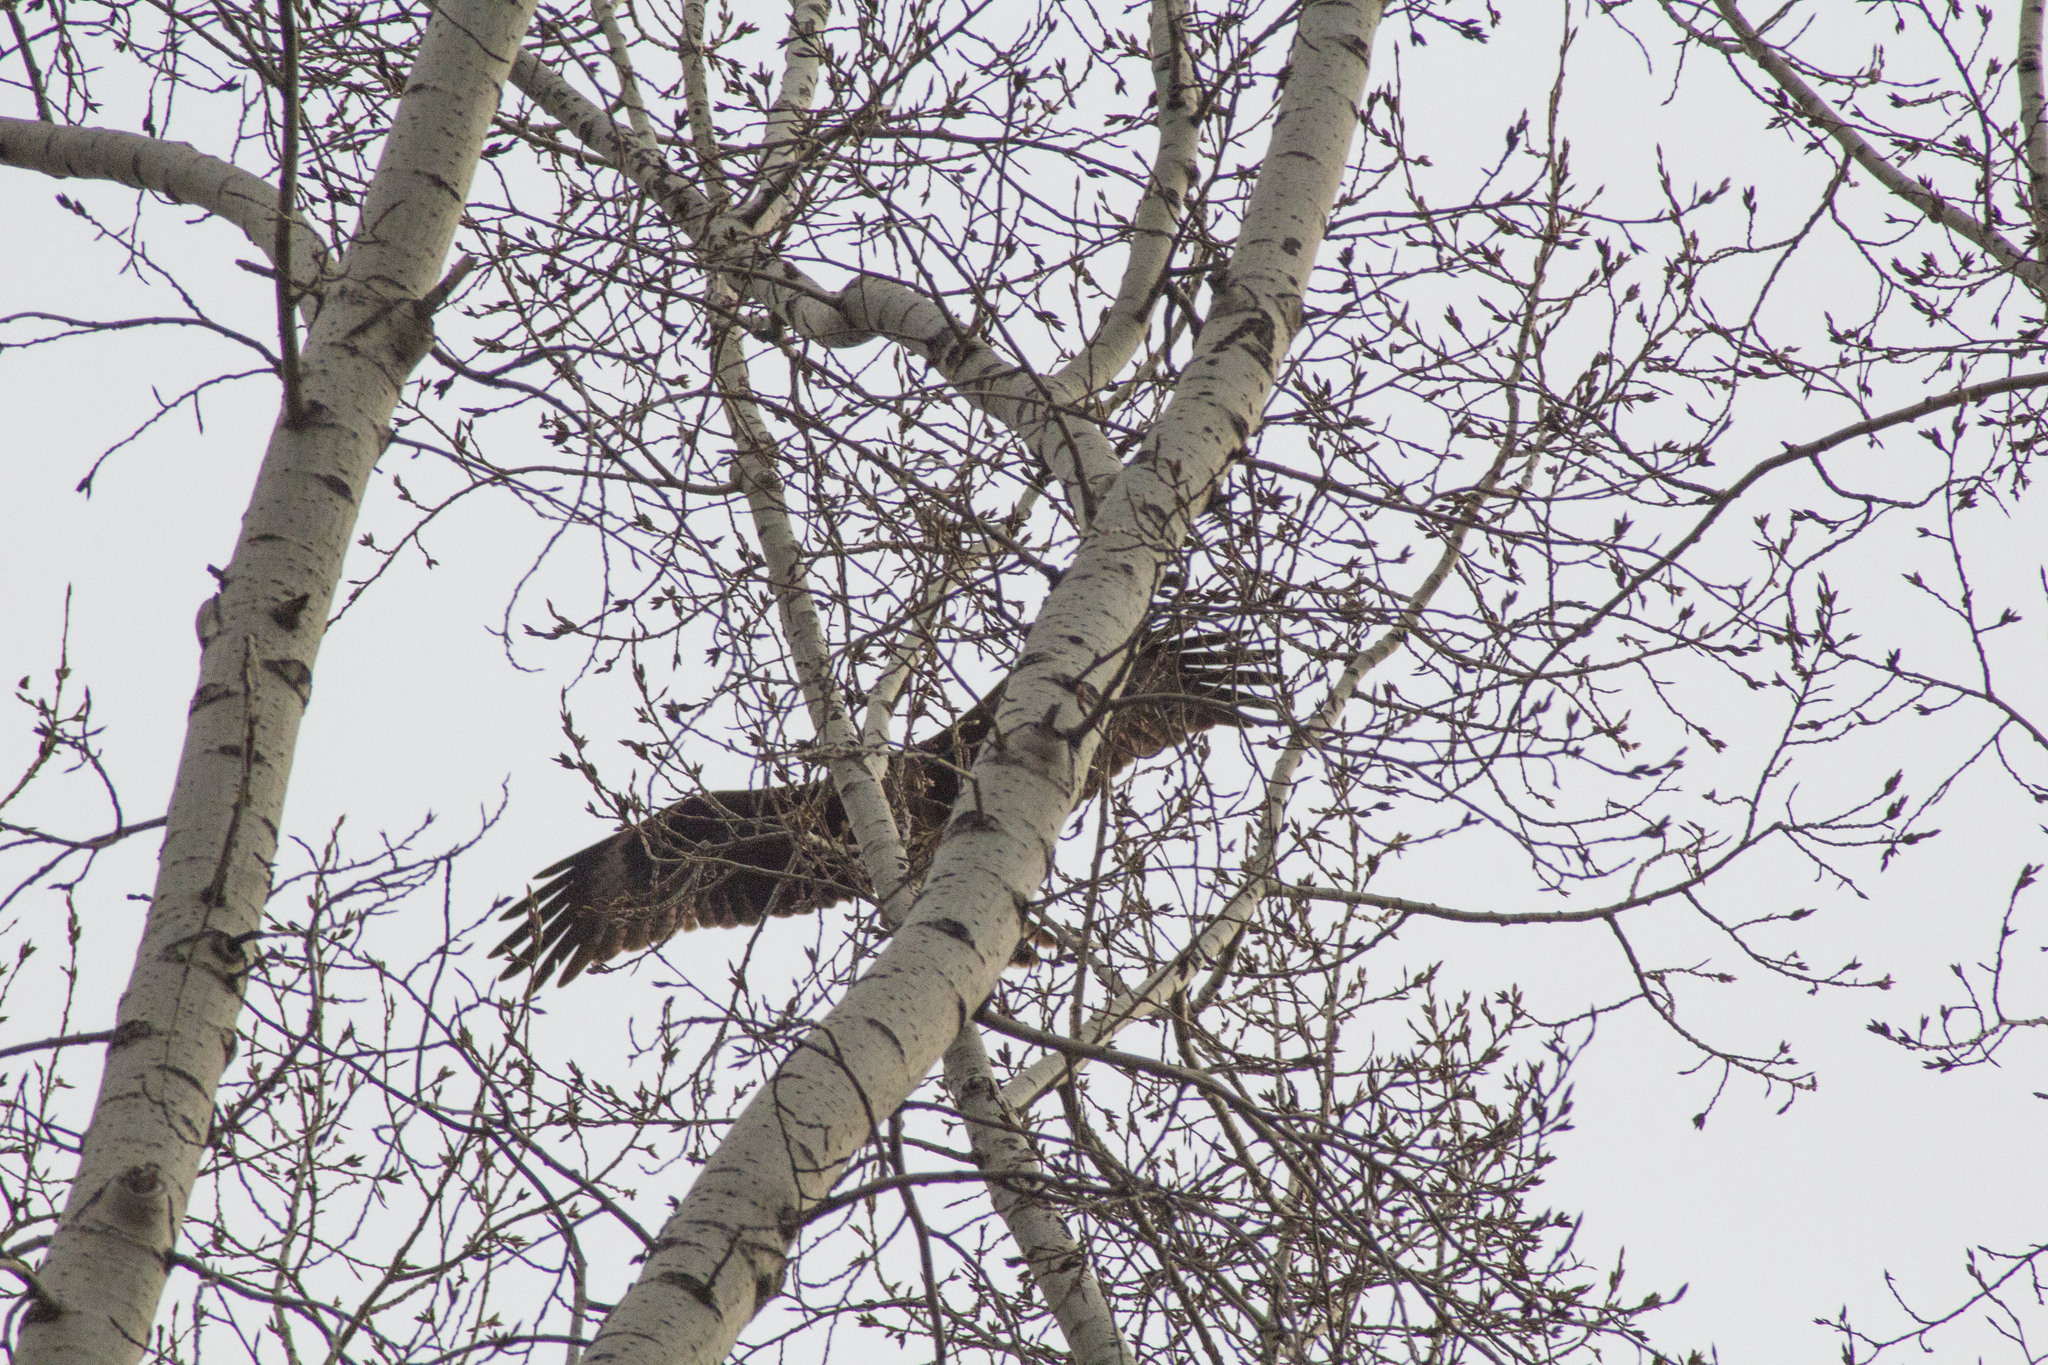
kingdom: Animalia
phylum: Chordata
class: Aves
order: Accipitriformes
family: Accipitridae
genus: Milvus
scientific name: Milvus migrans
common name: Black kite
